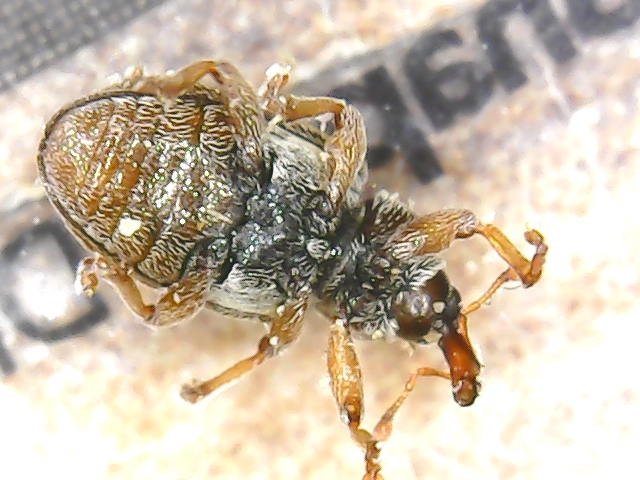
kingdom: Animalia
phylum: Arthropoda
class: Insecta
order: Coleoptera
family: Curculionidae
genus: Ellescus
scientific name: Ellescus scanicus
